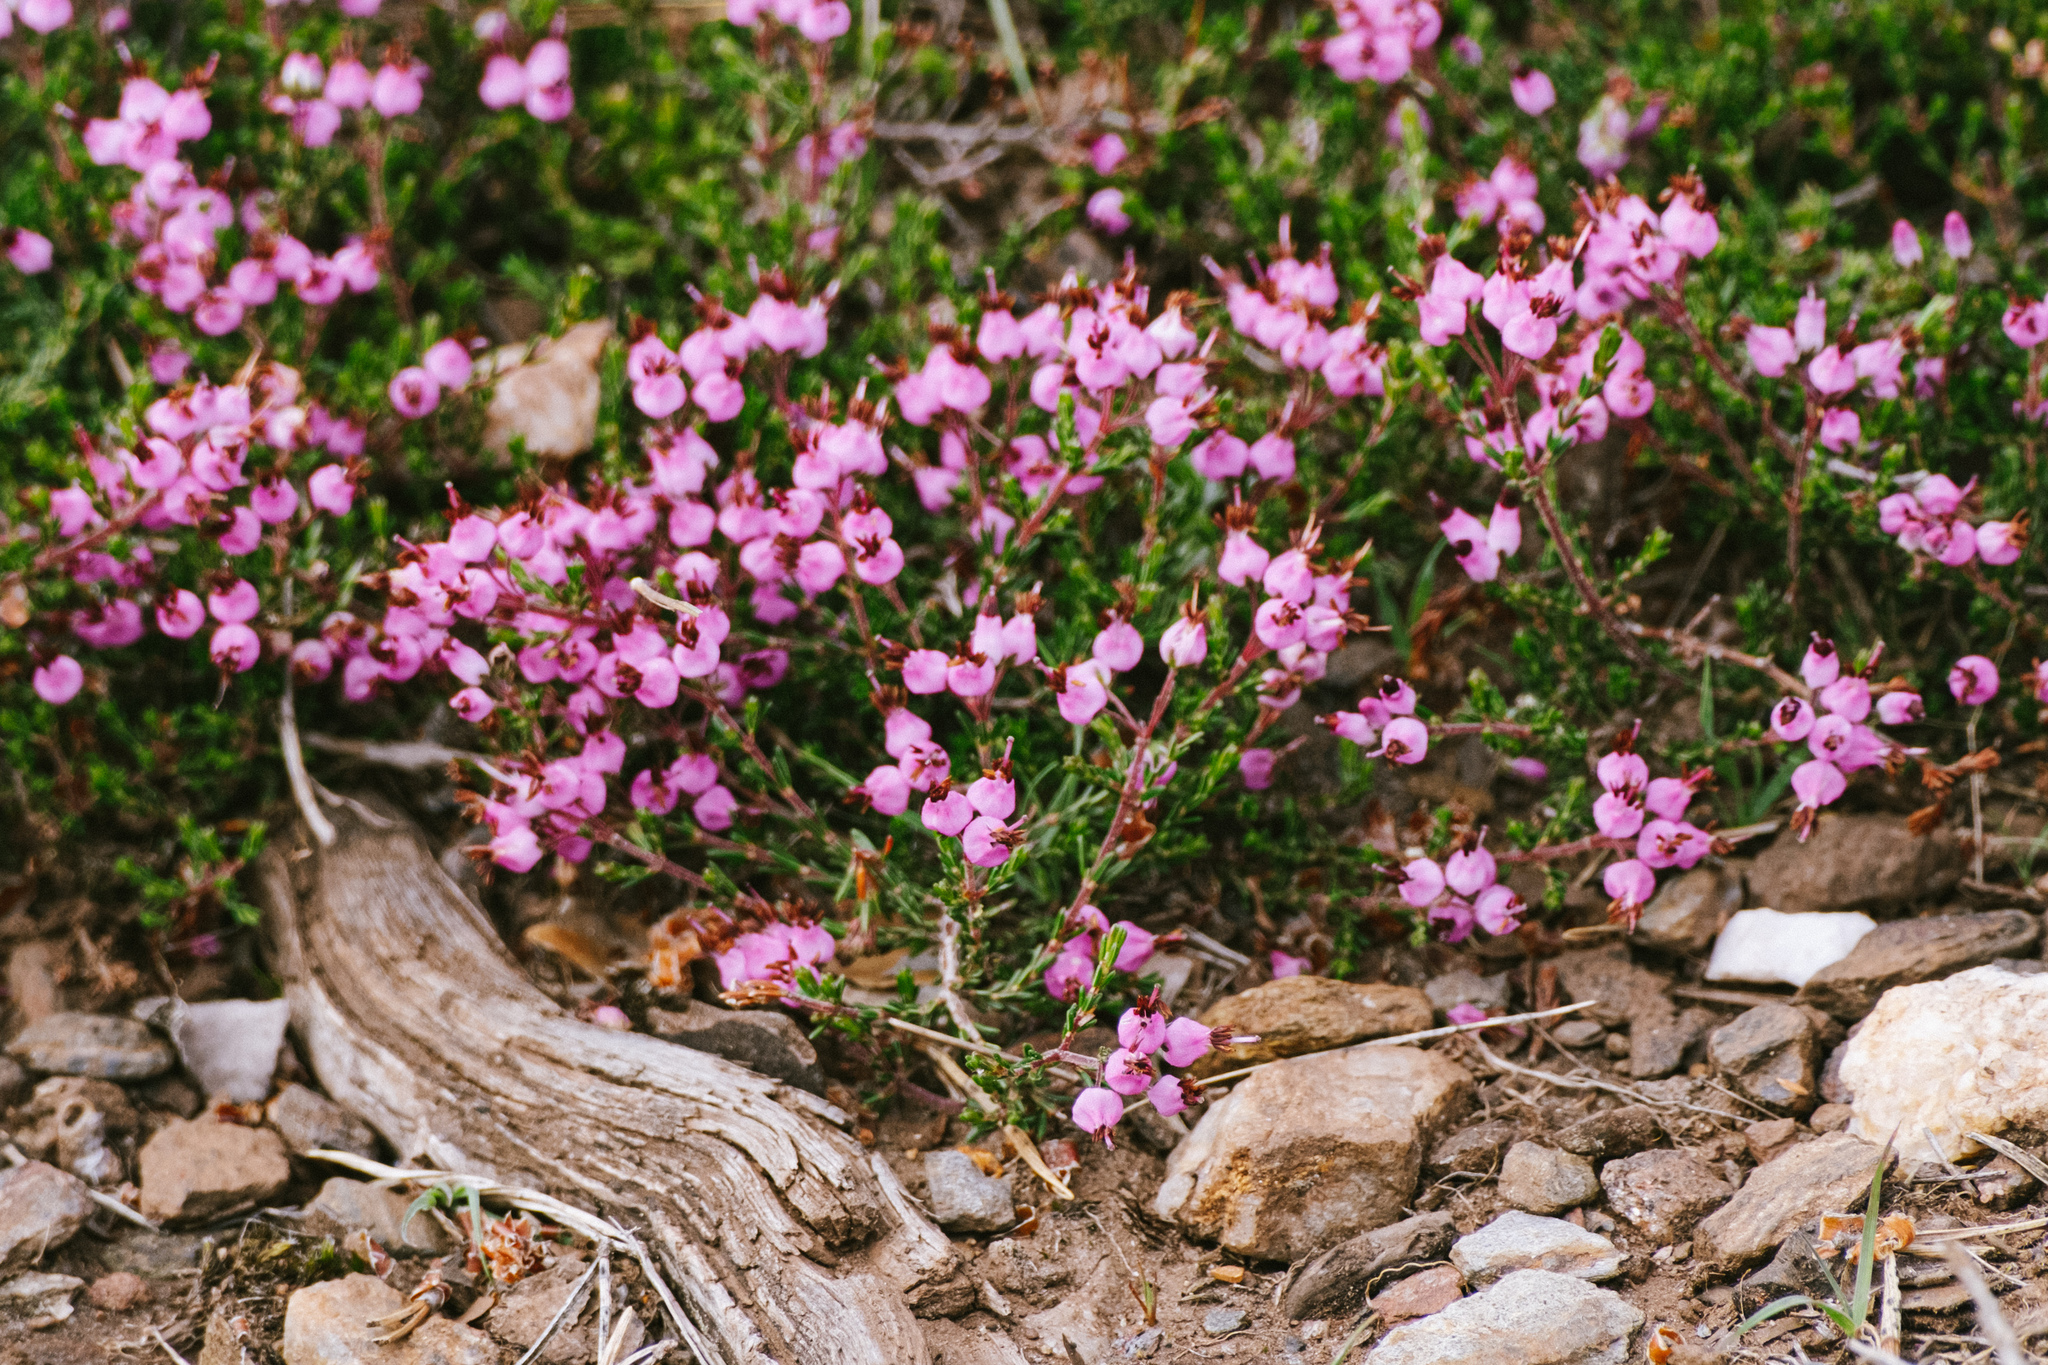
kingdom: Plantae
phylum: Tracheophyta
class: Magnoliopsida
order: Ericales
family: Ericaceae
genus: Erica
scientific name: Erica umbellata
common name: Dwarf spanish heath
